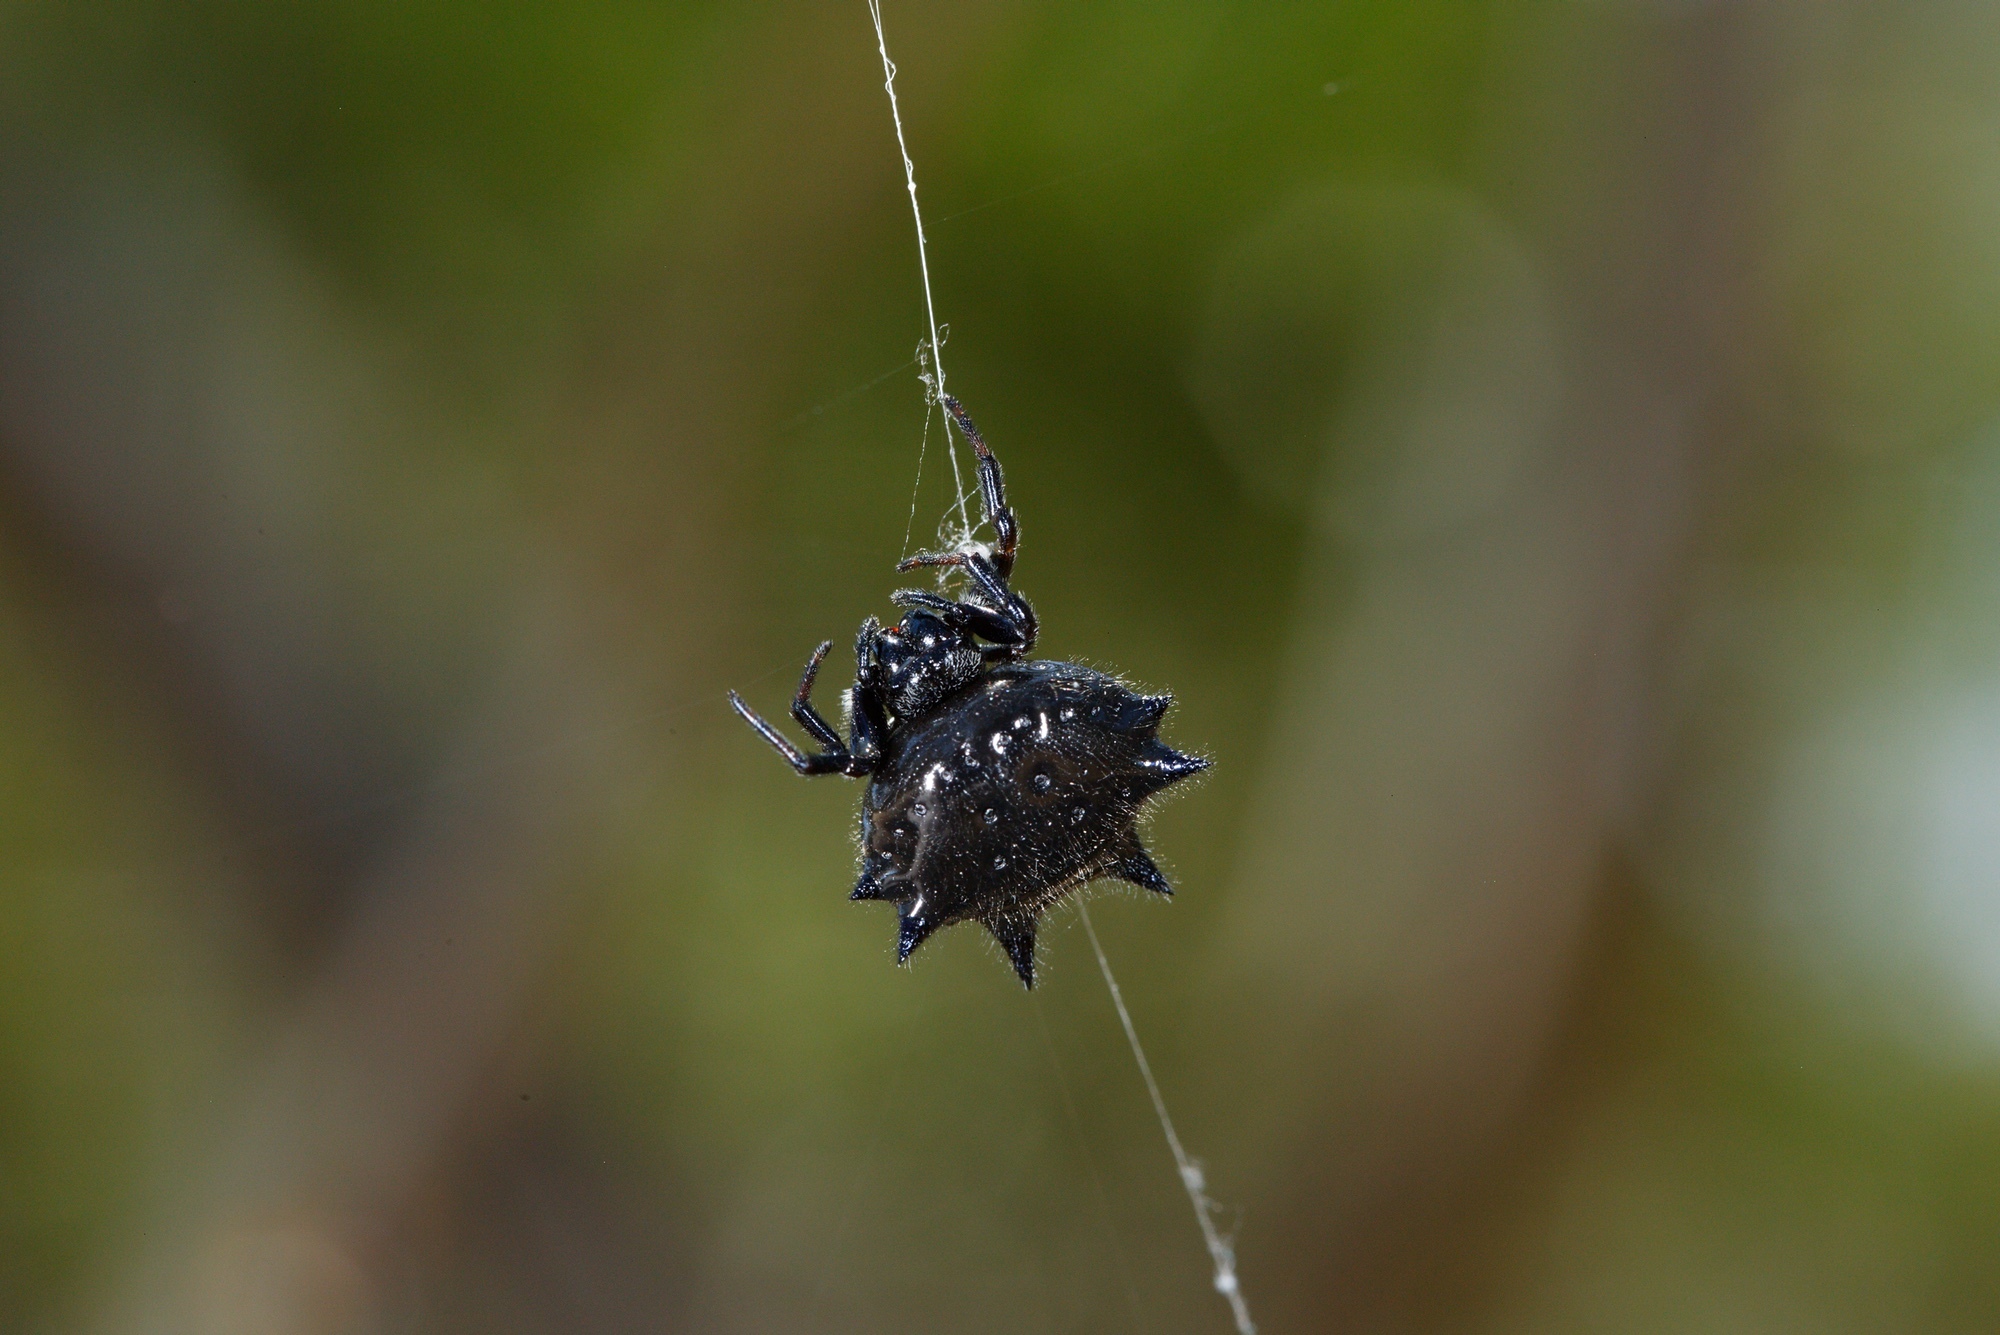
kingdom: Animalia
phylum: Arthropoda
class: Arachnida
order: Araneae
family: Araneidae
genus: Austracantha
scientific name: Austracantha minax
